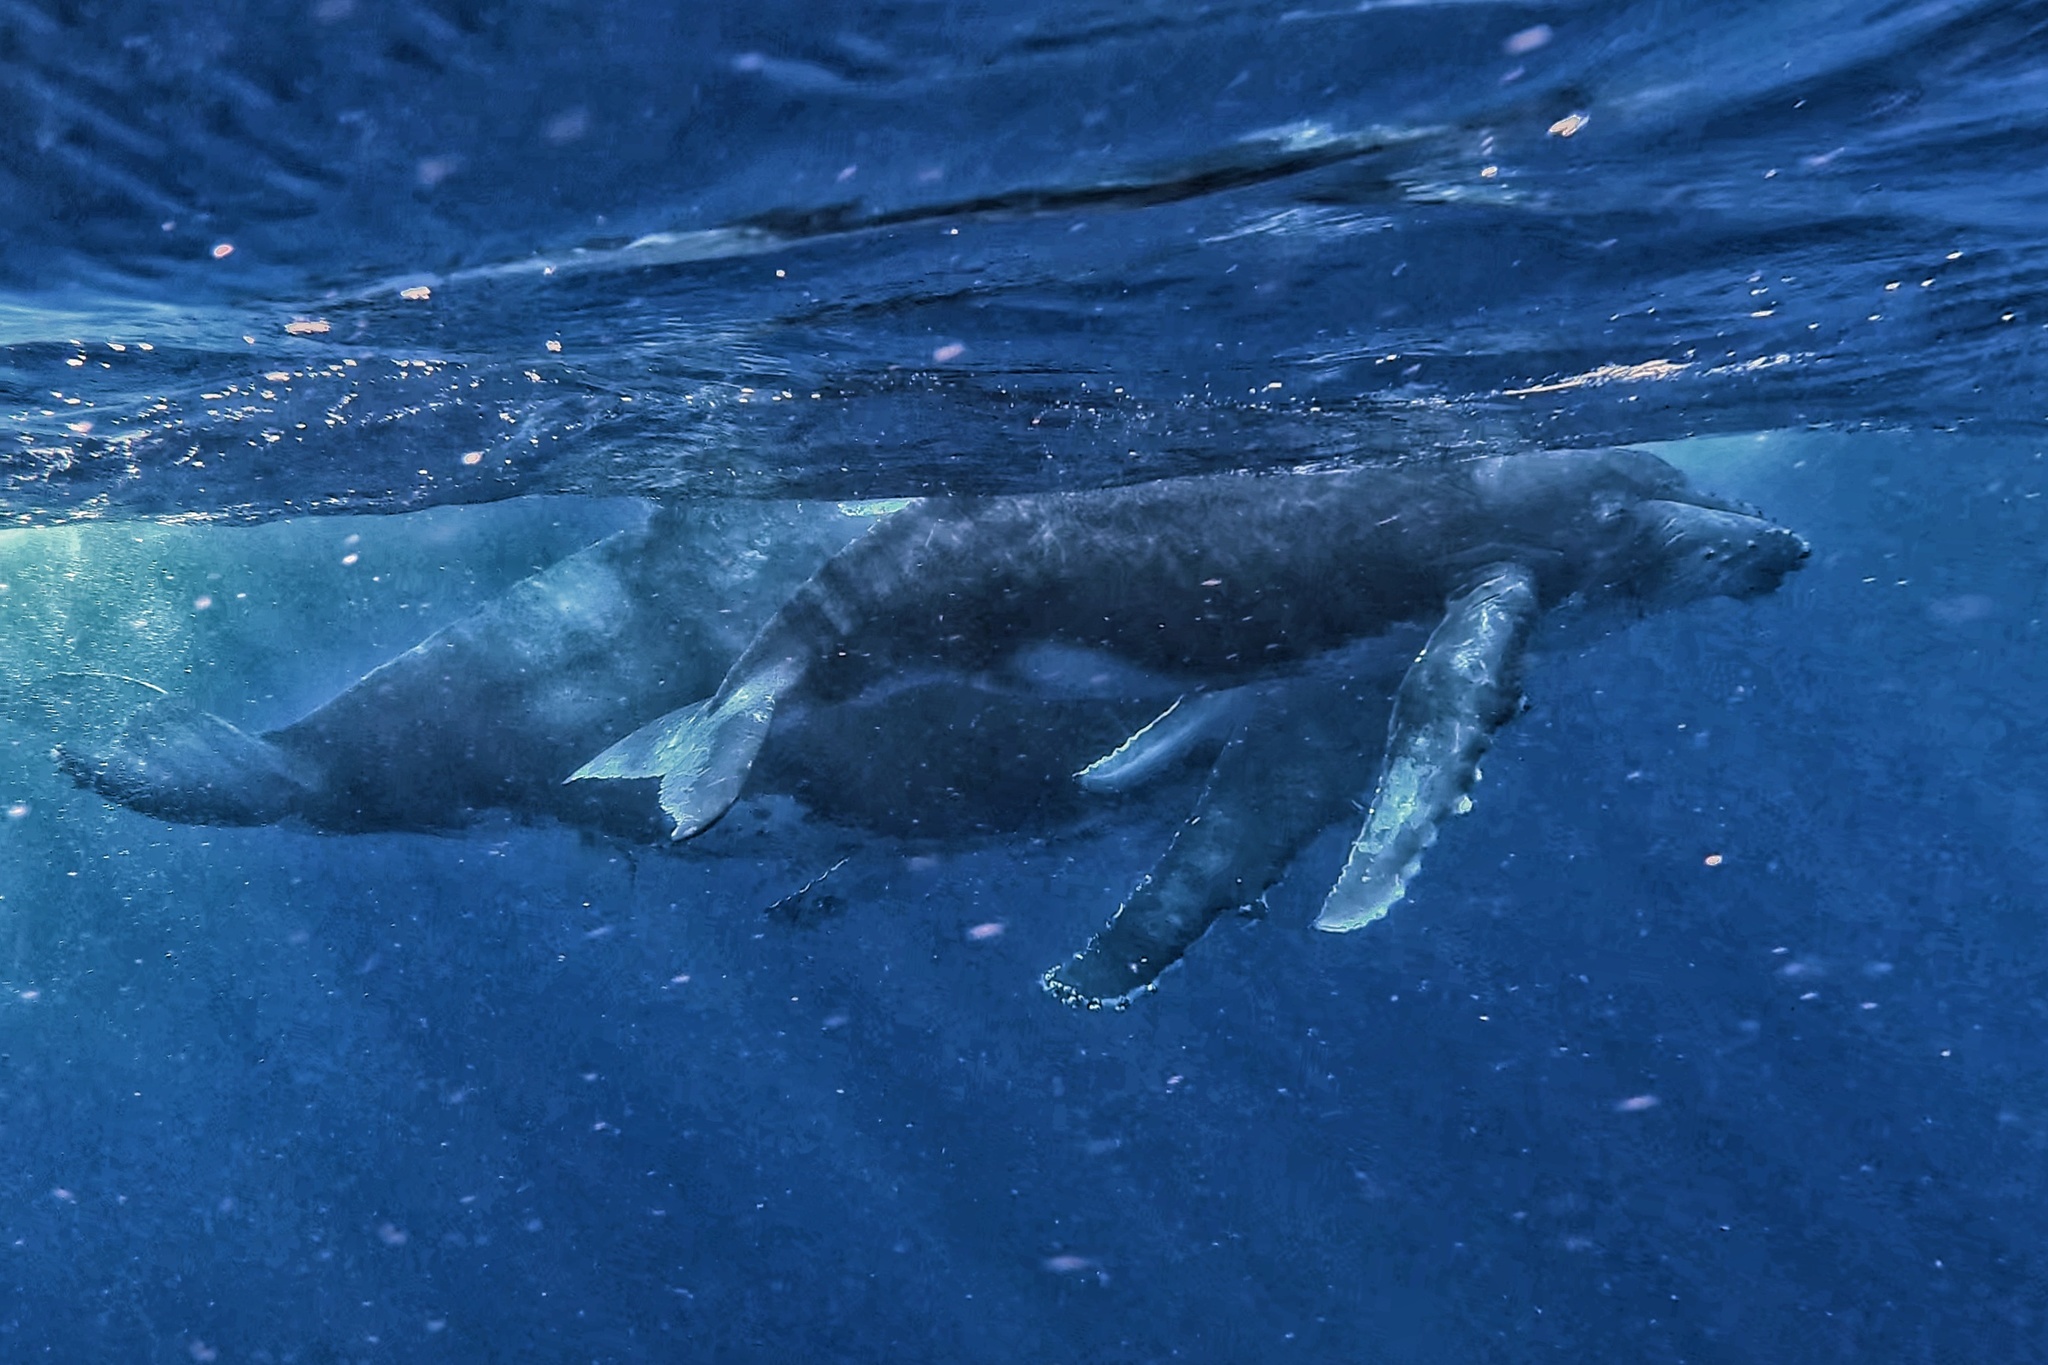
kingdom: Animalia
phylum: Chordata
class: Mammalia
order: Cetacea
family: Balaenopteridae
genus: Megaptera
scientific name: Megaptera novaeangliae
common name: Humpback whale
